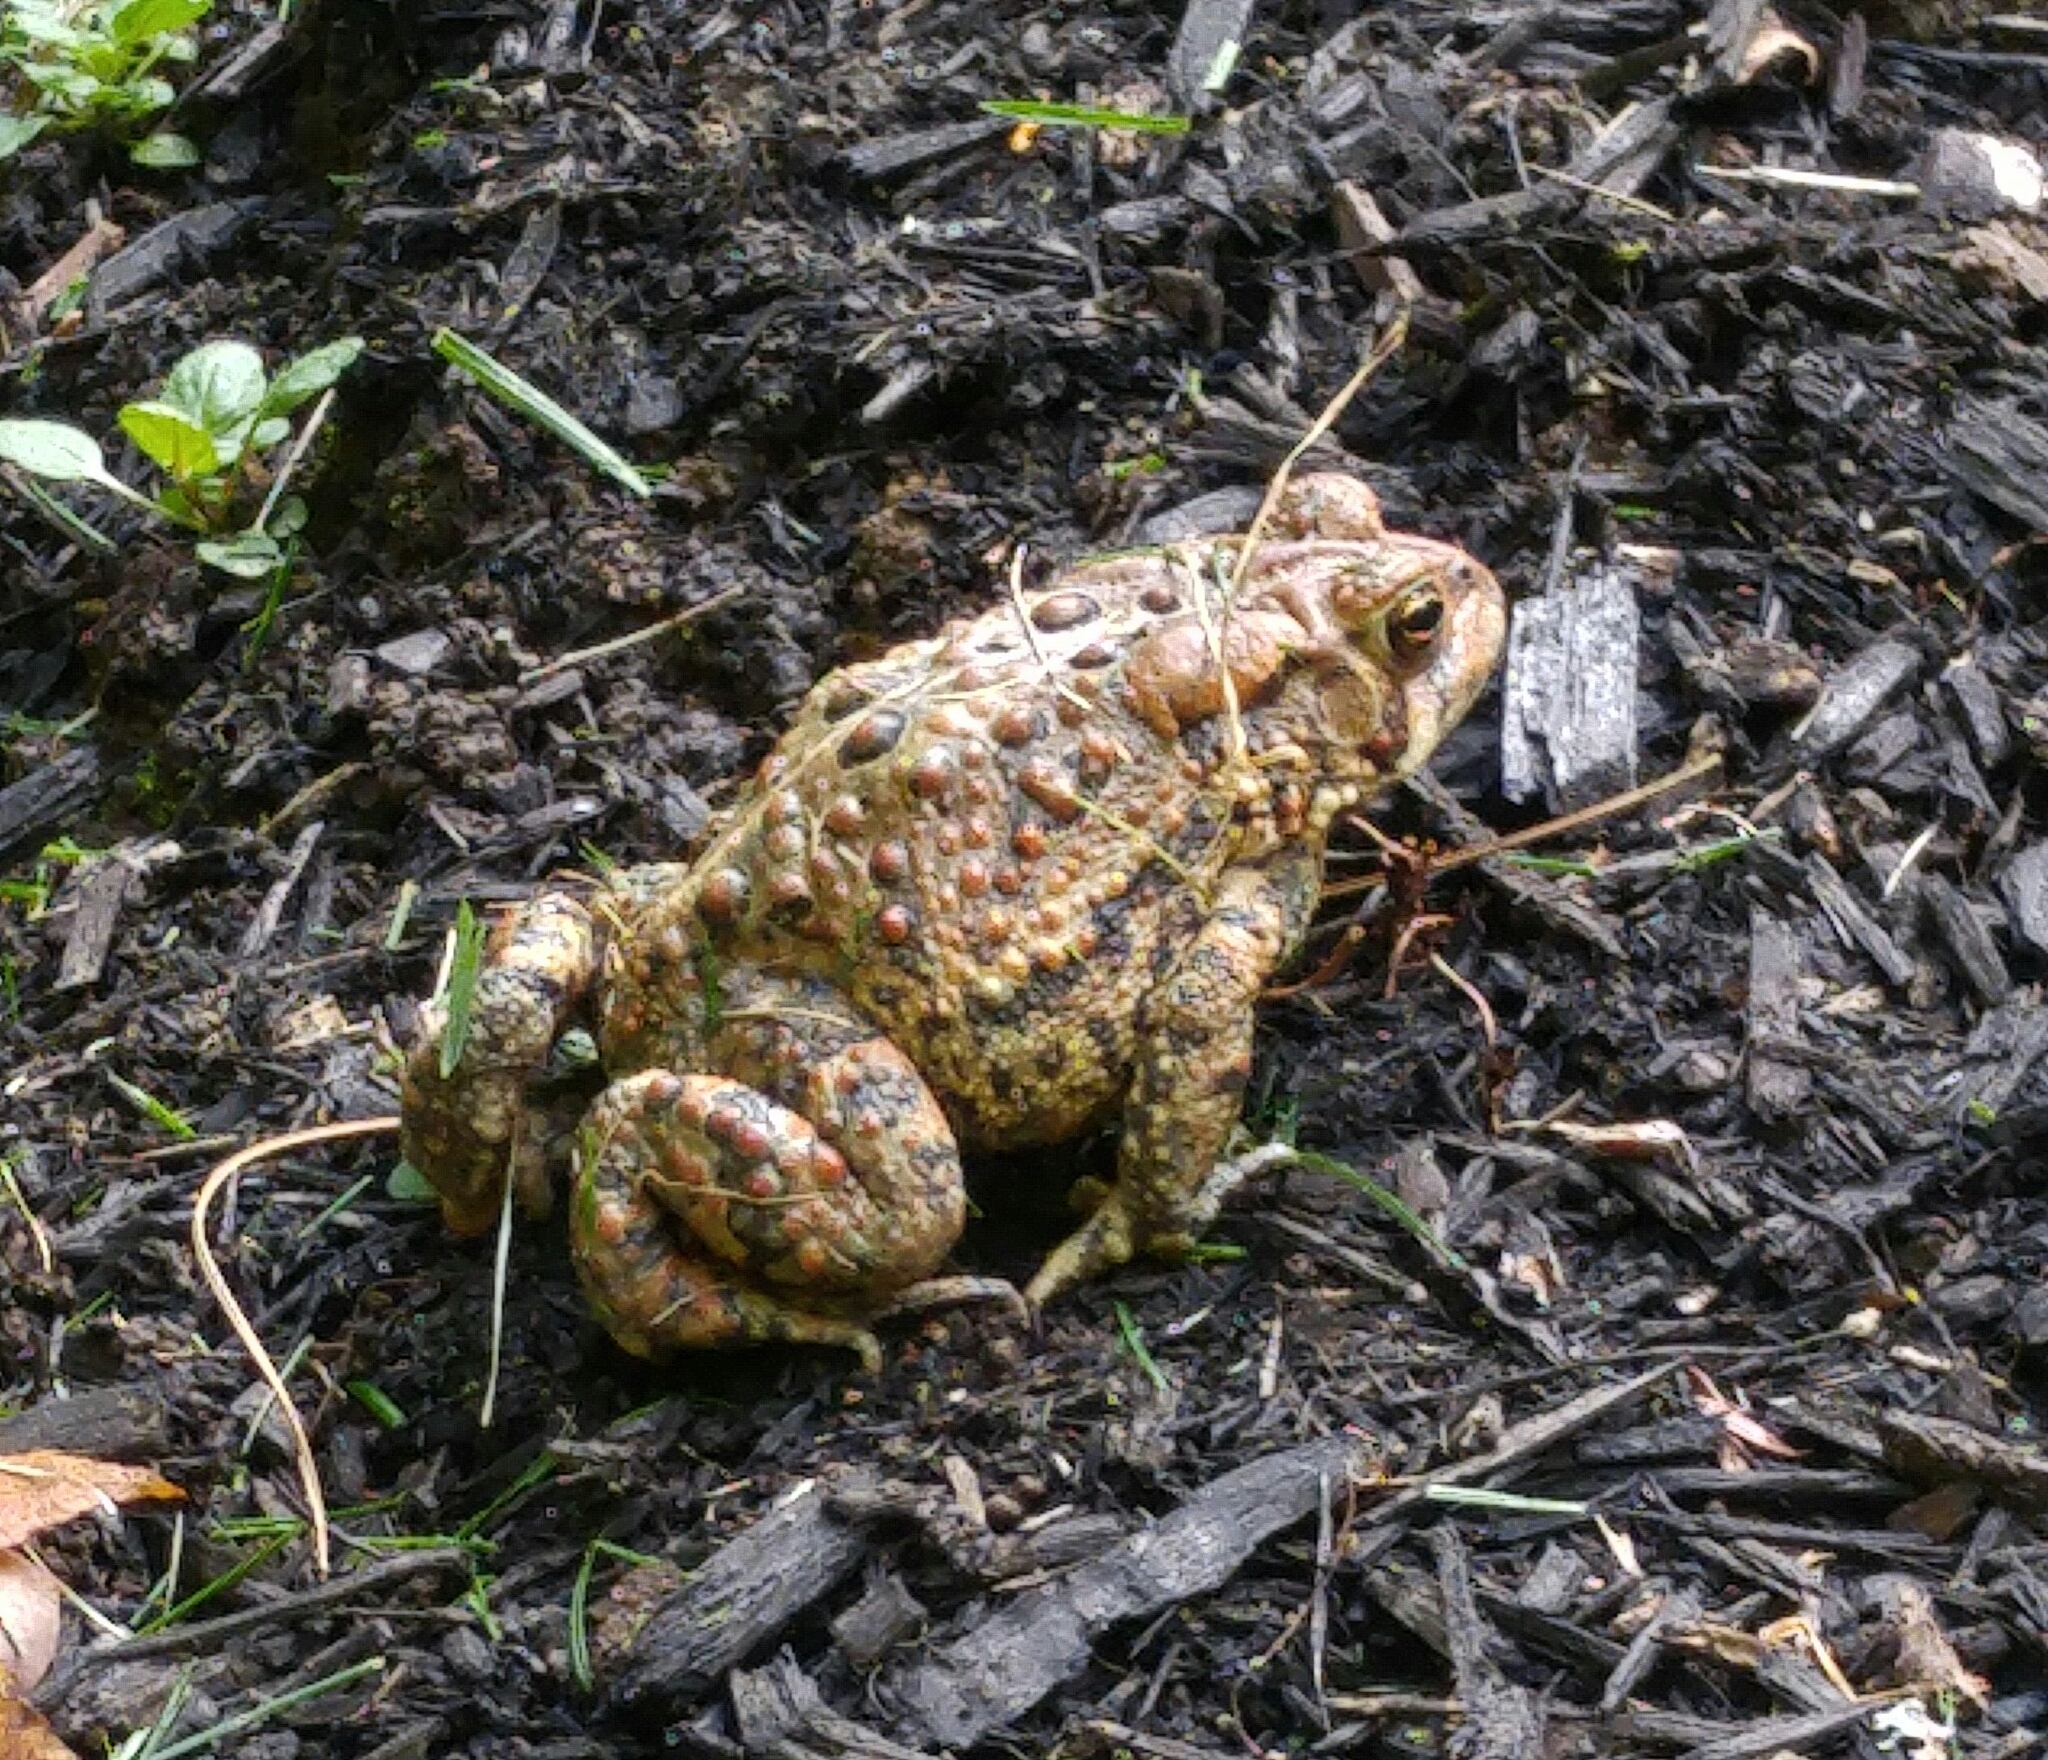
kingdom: Animalia
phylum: Chordata
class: Amphibia
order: Anura
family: Bufonidae
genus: Anaxyrus
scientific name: Anaxyrus americanus
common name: American toad
